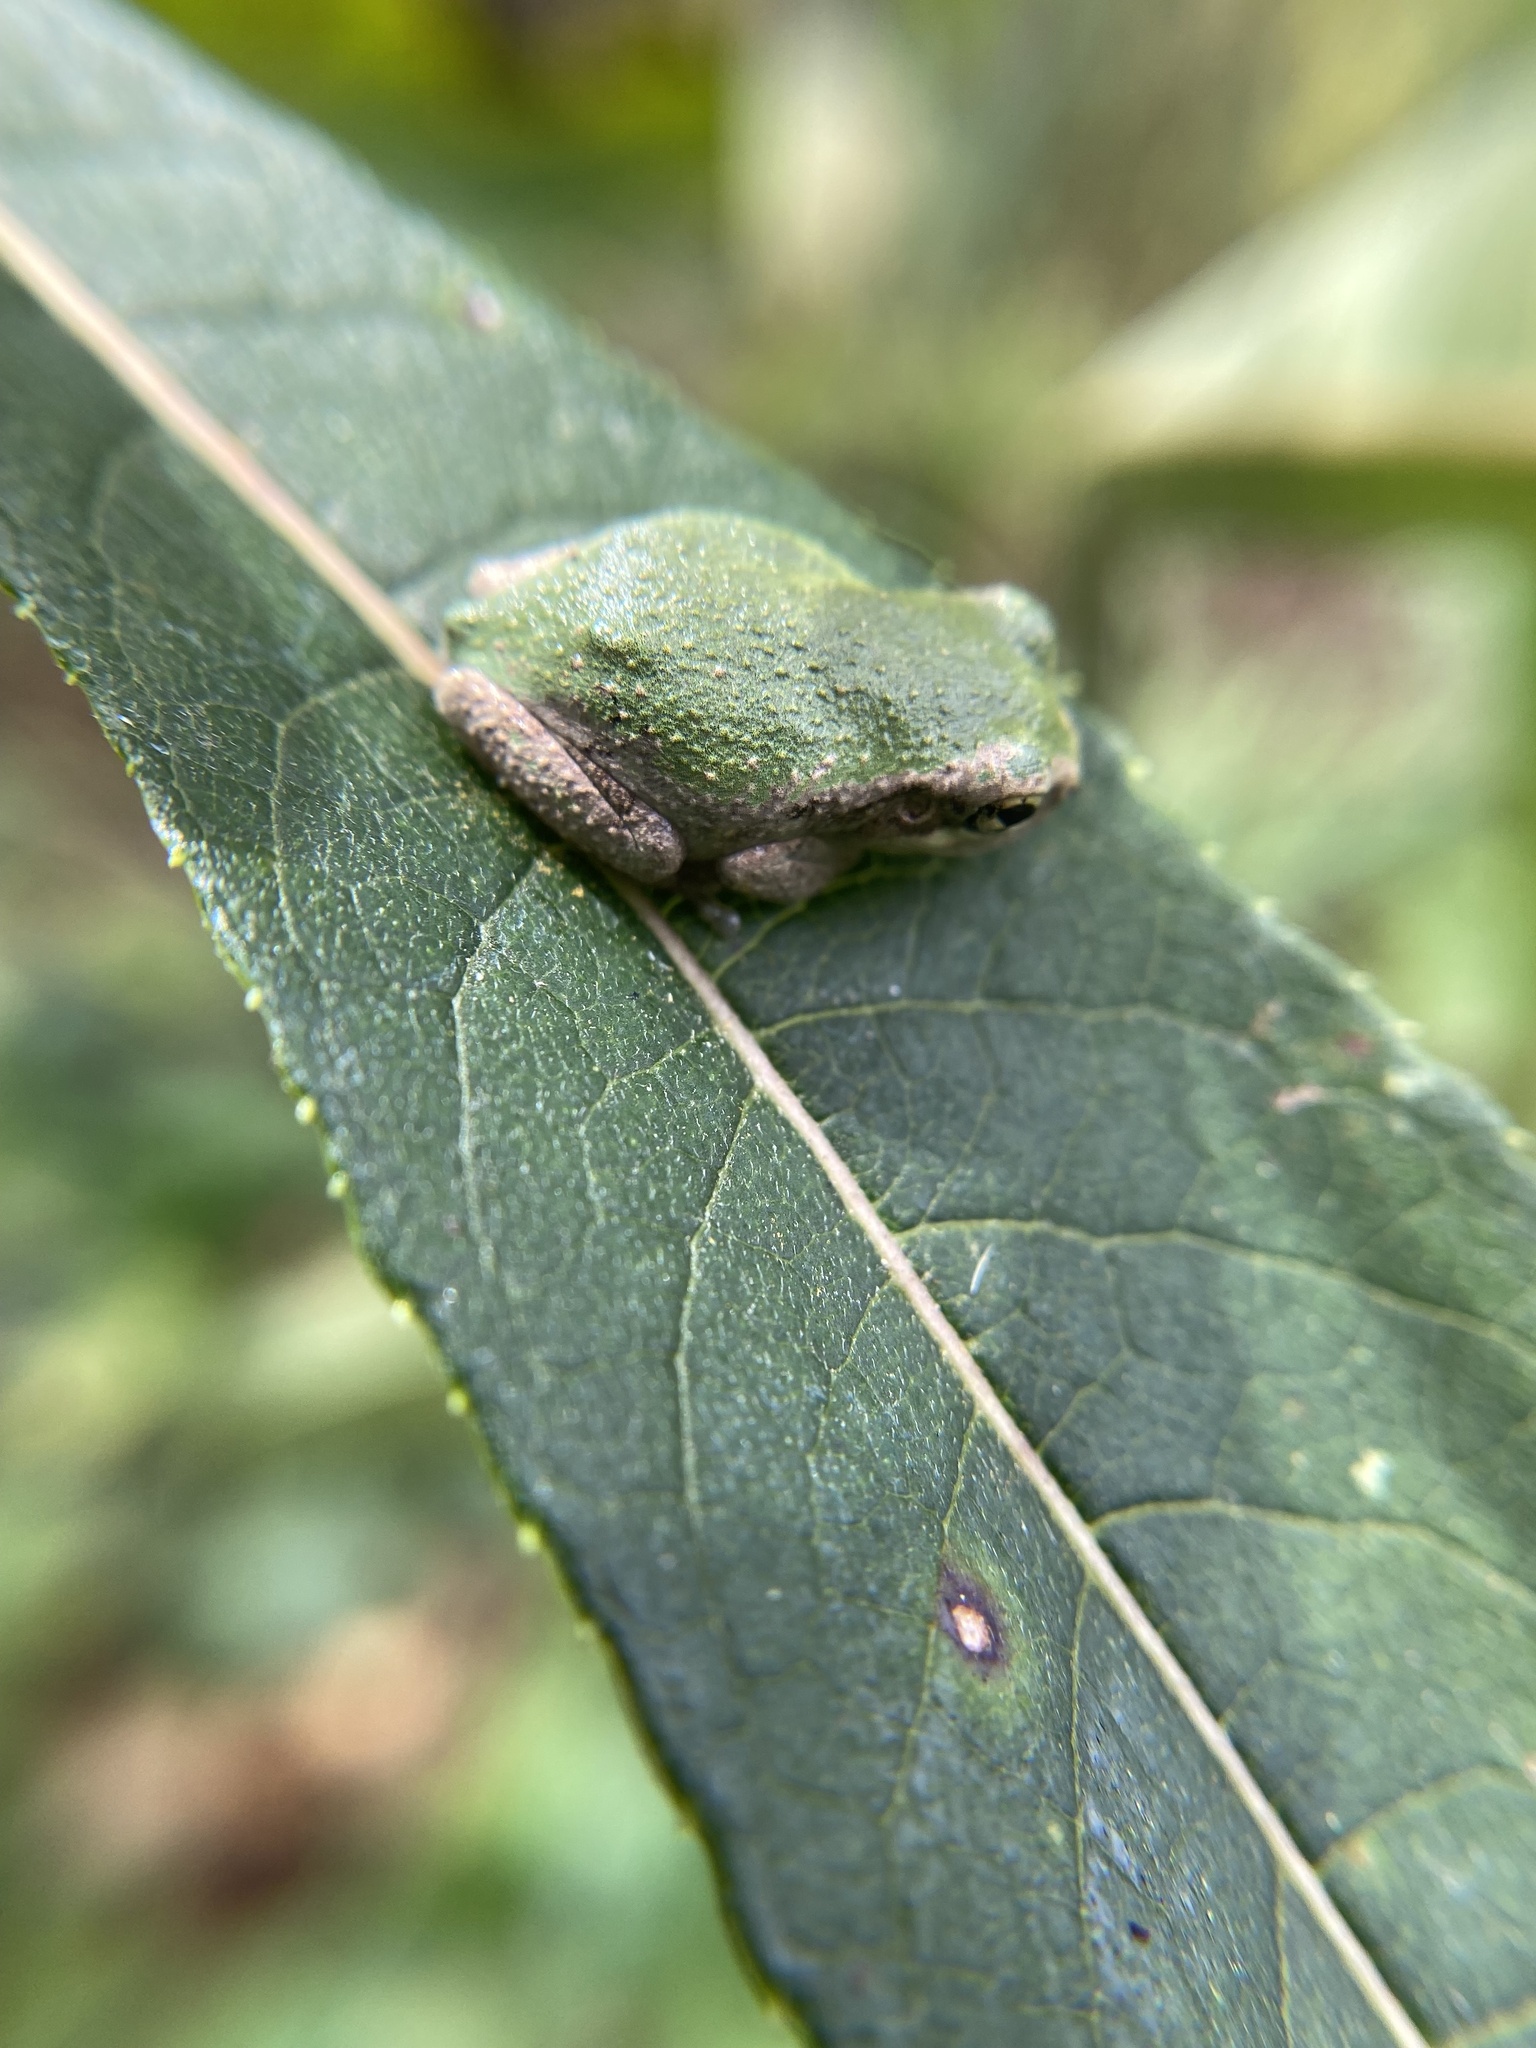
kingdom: Animalia
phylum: Chordata
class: Amphibia
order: Anura
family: Hylidae
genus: Dryophytes
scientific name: Dryophytes chrysoscelis
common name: Cope's gray treefrog
